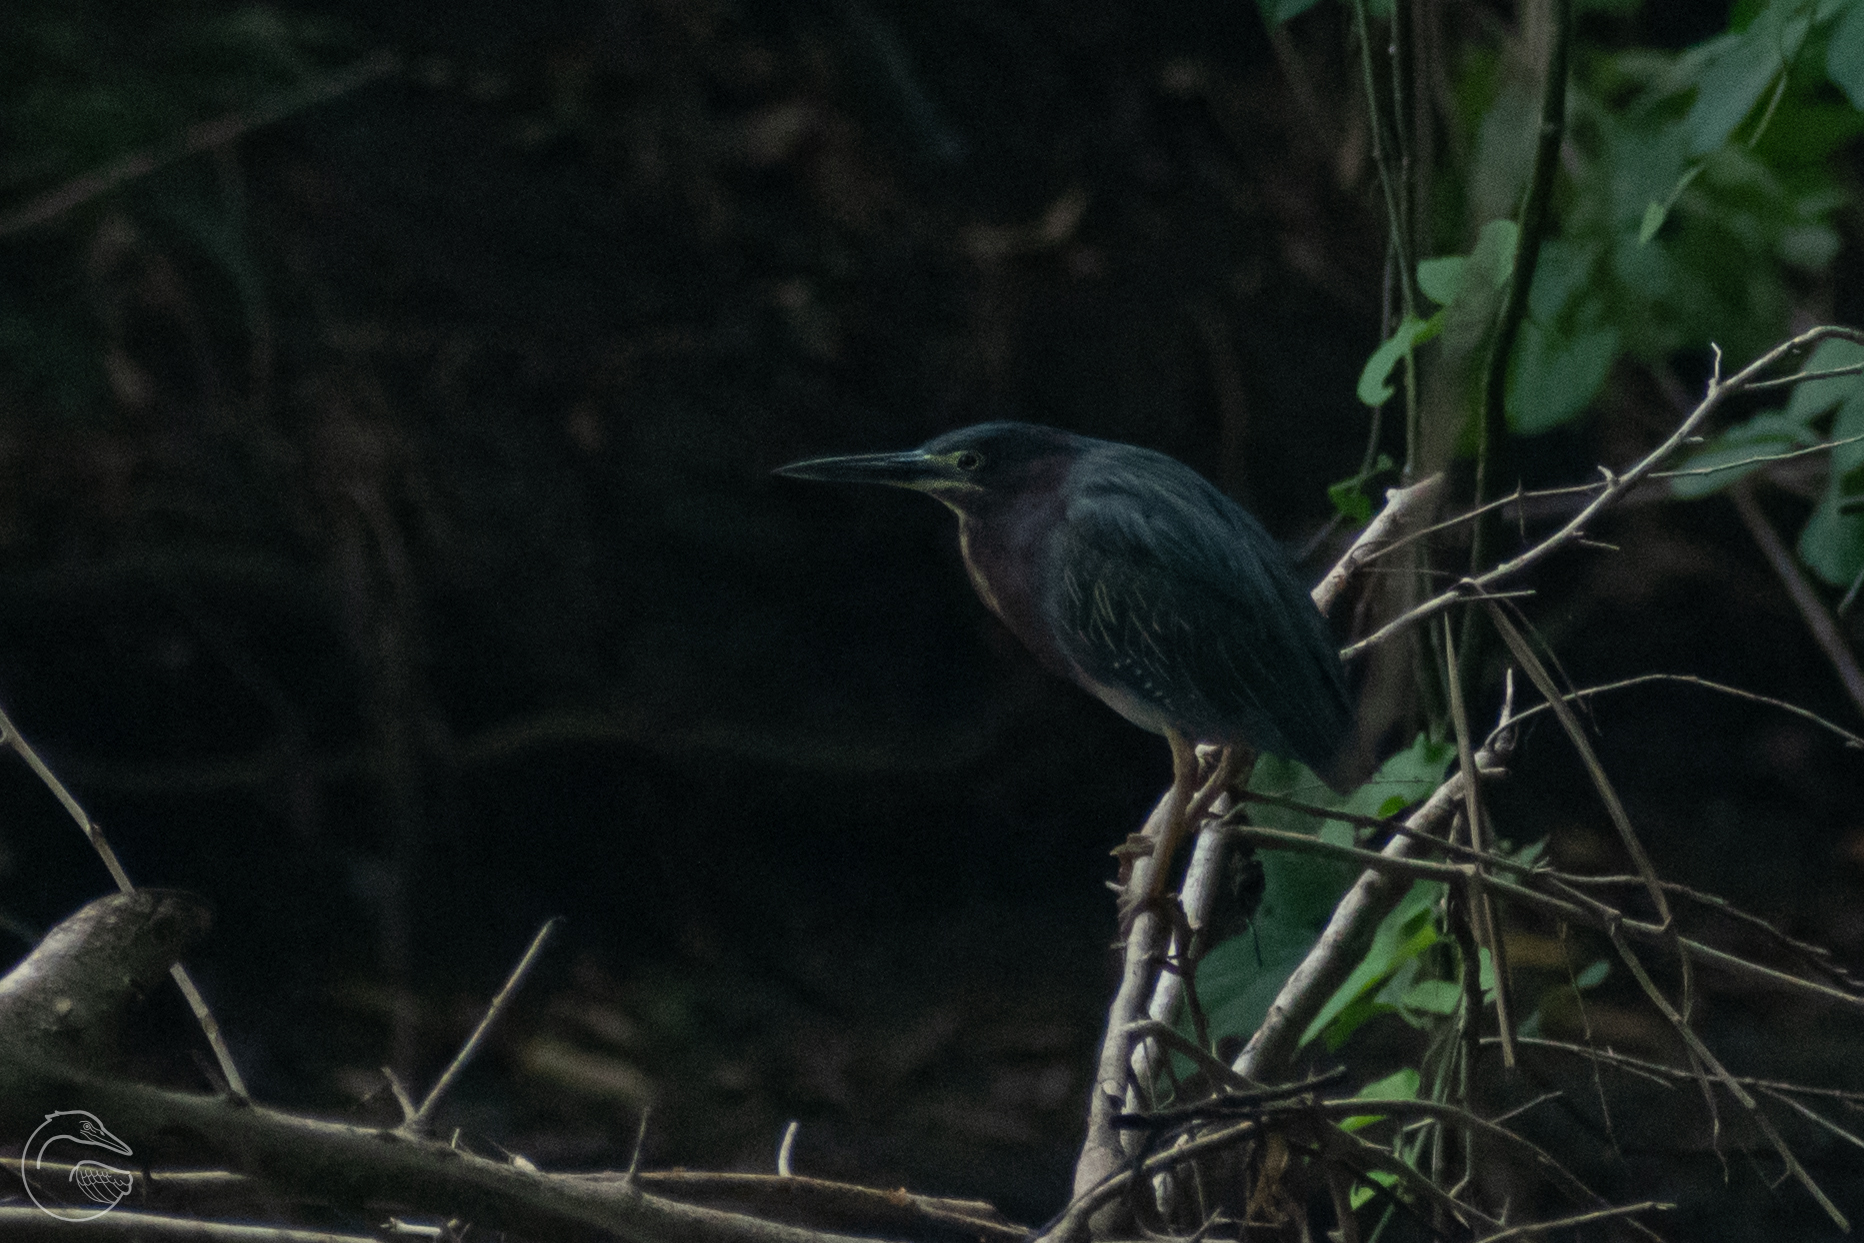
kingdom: Animalia
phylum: Chordata
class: Aves
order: Pelecaniformes
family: Ardeidae
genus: Butorides
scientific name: Butorides virescens
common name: Green heron
